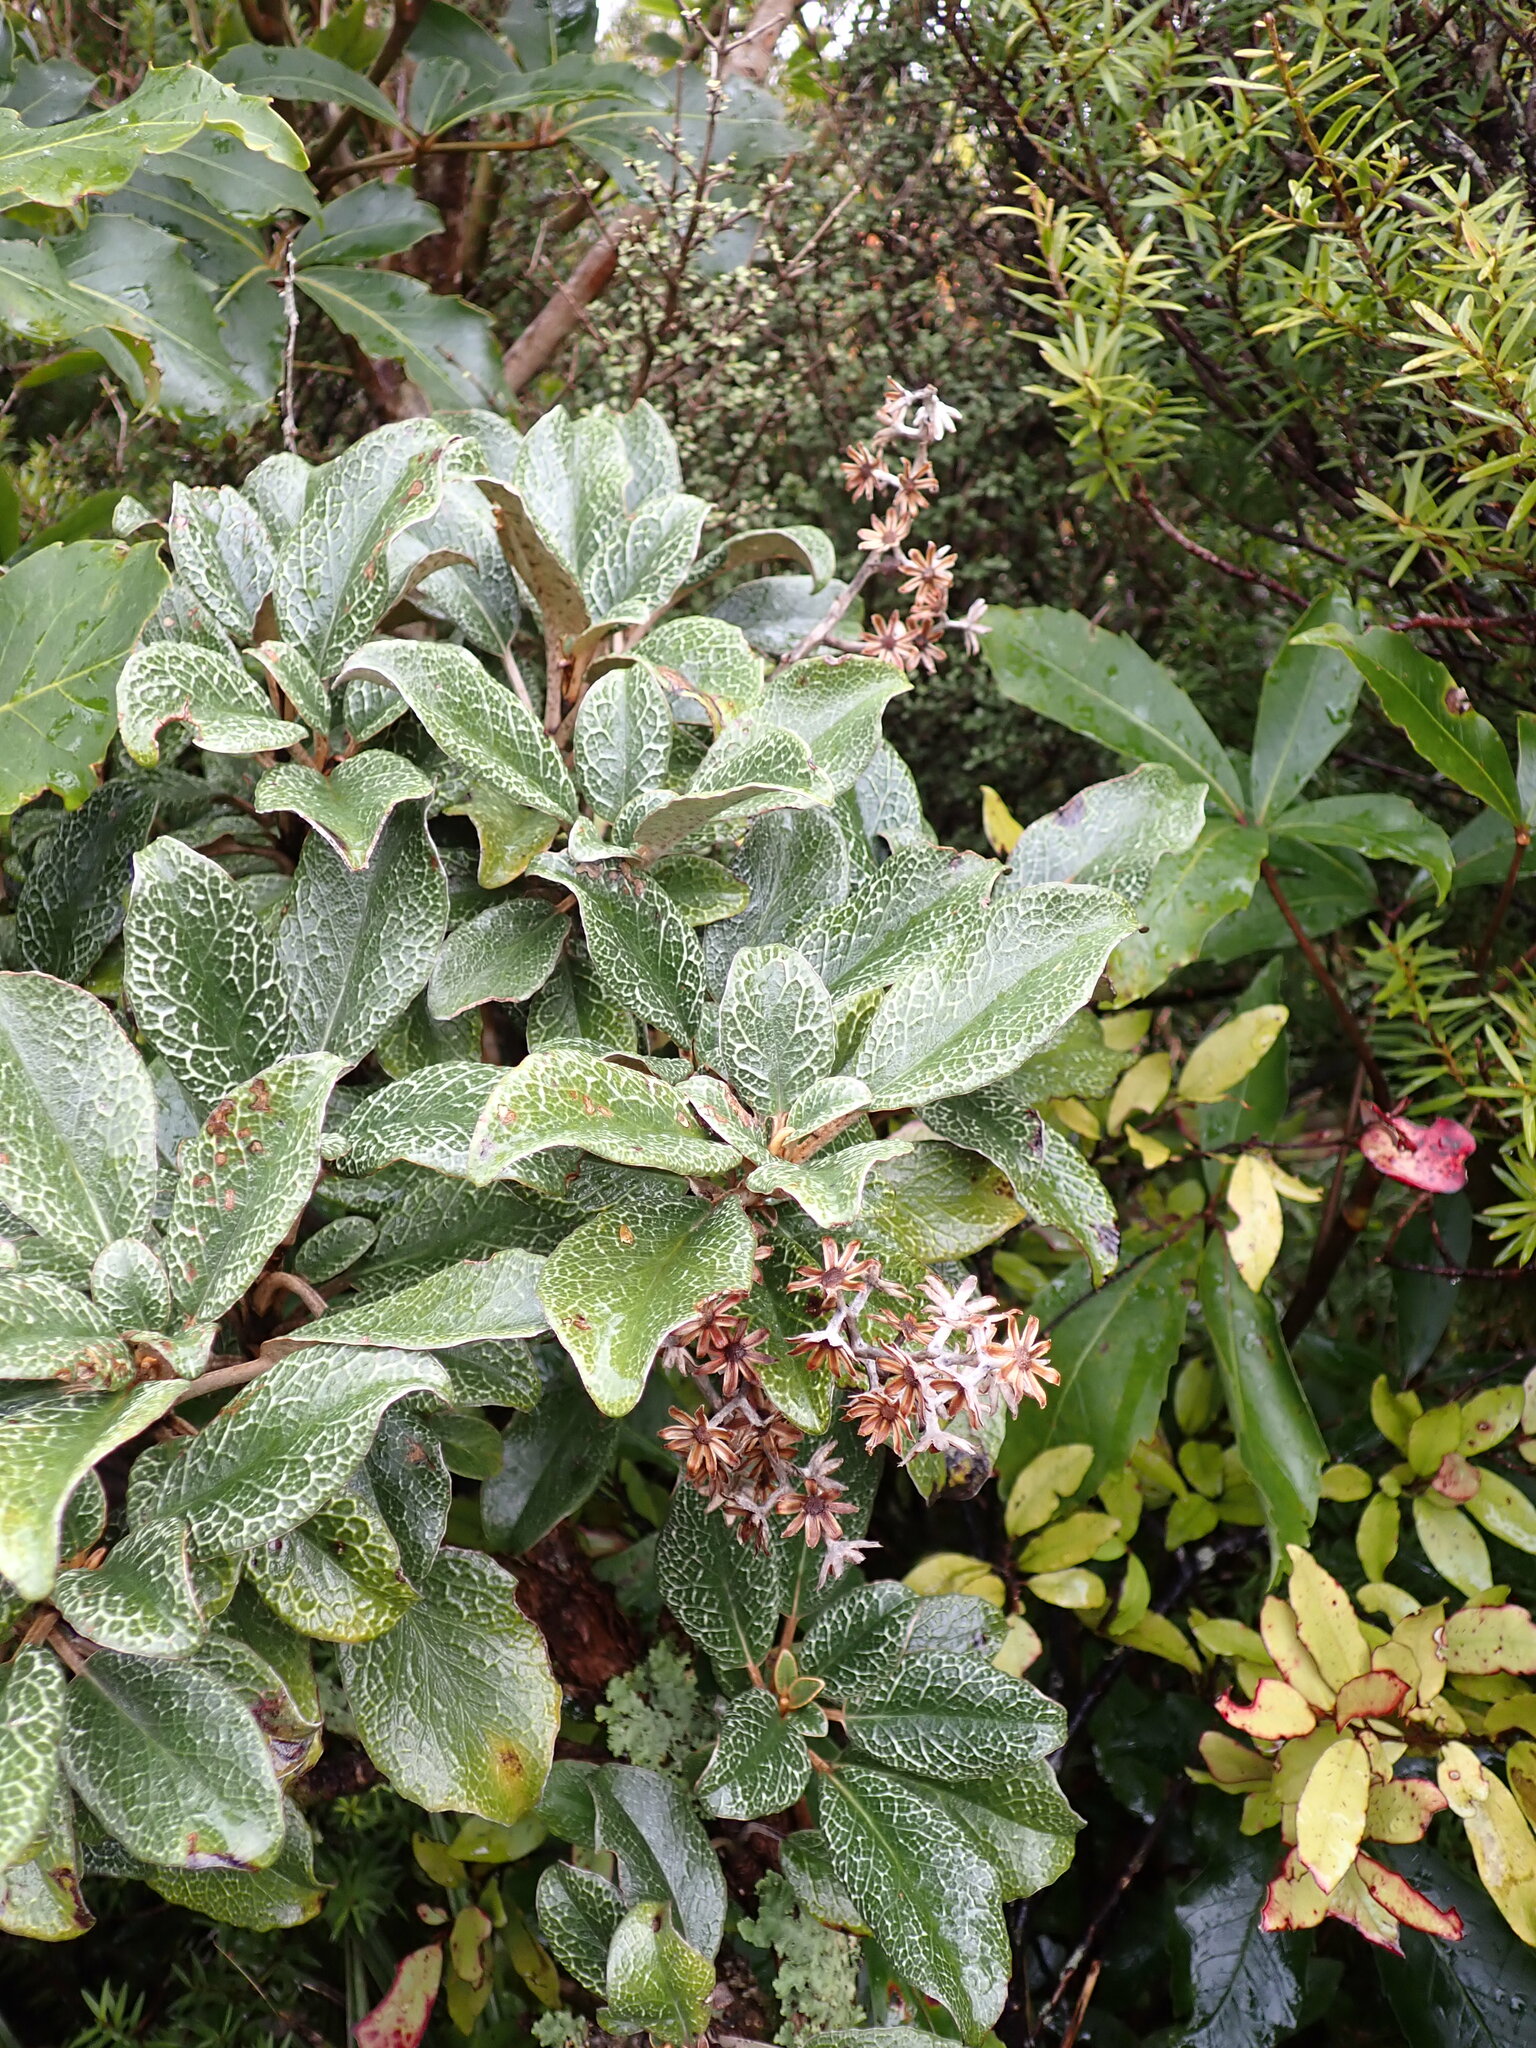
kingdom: Plantae
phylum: Tracheophyta
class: Magnoliopsida
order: Asterales
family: Asteraceae
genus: Brachyglottis
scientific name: Brachyglottis elaeagnifolia
